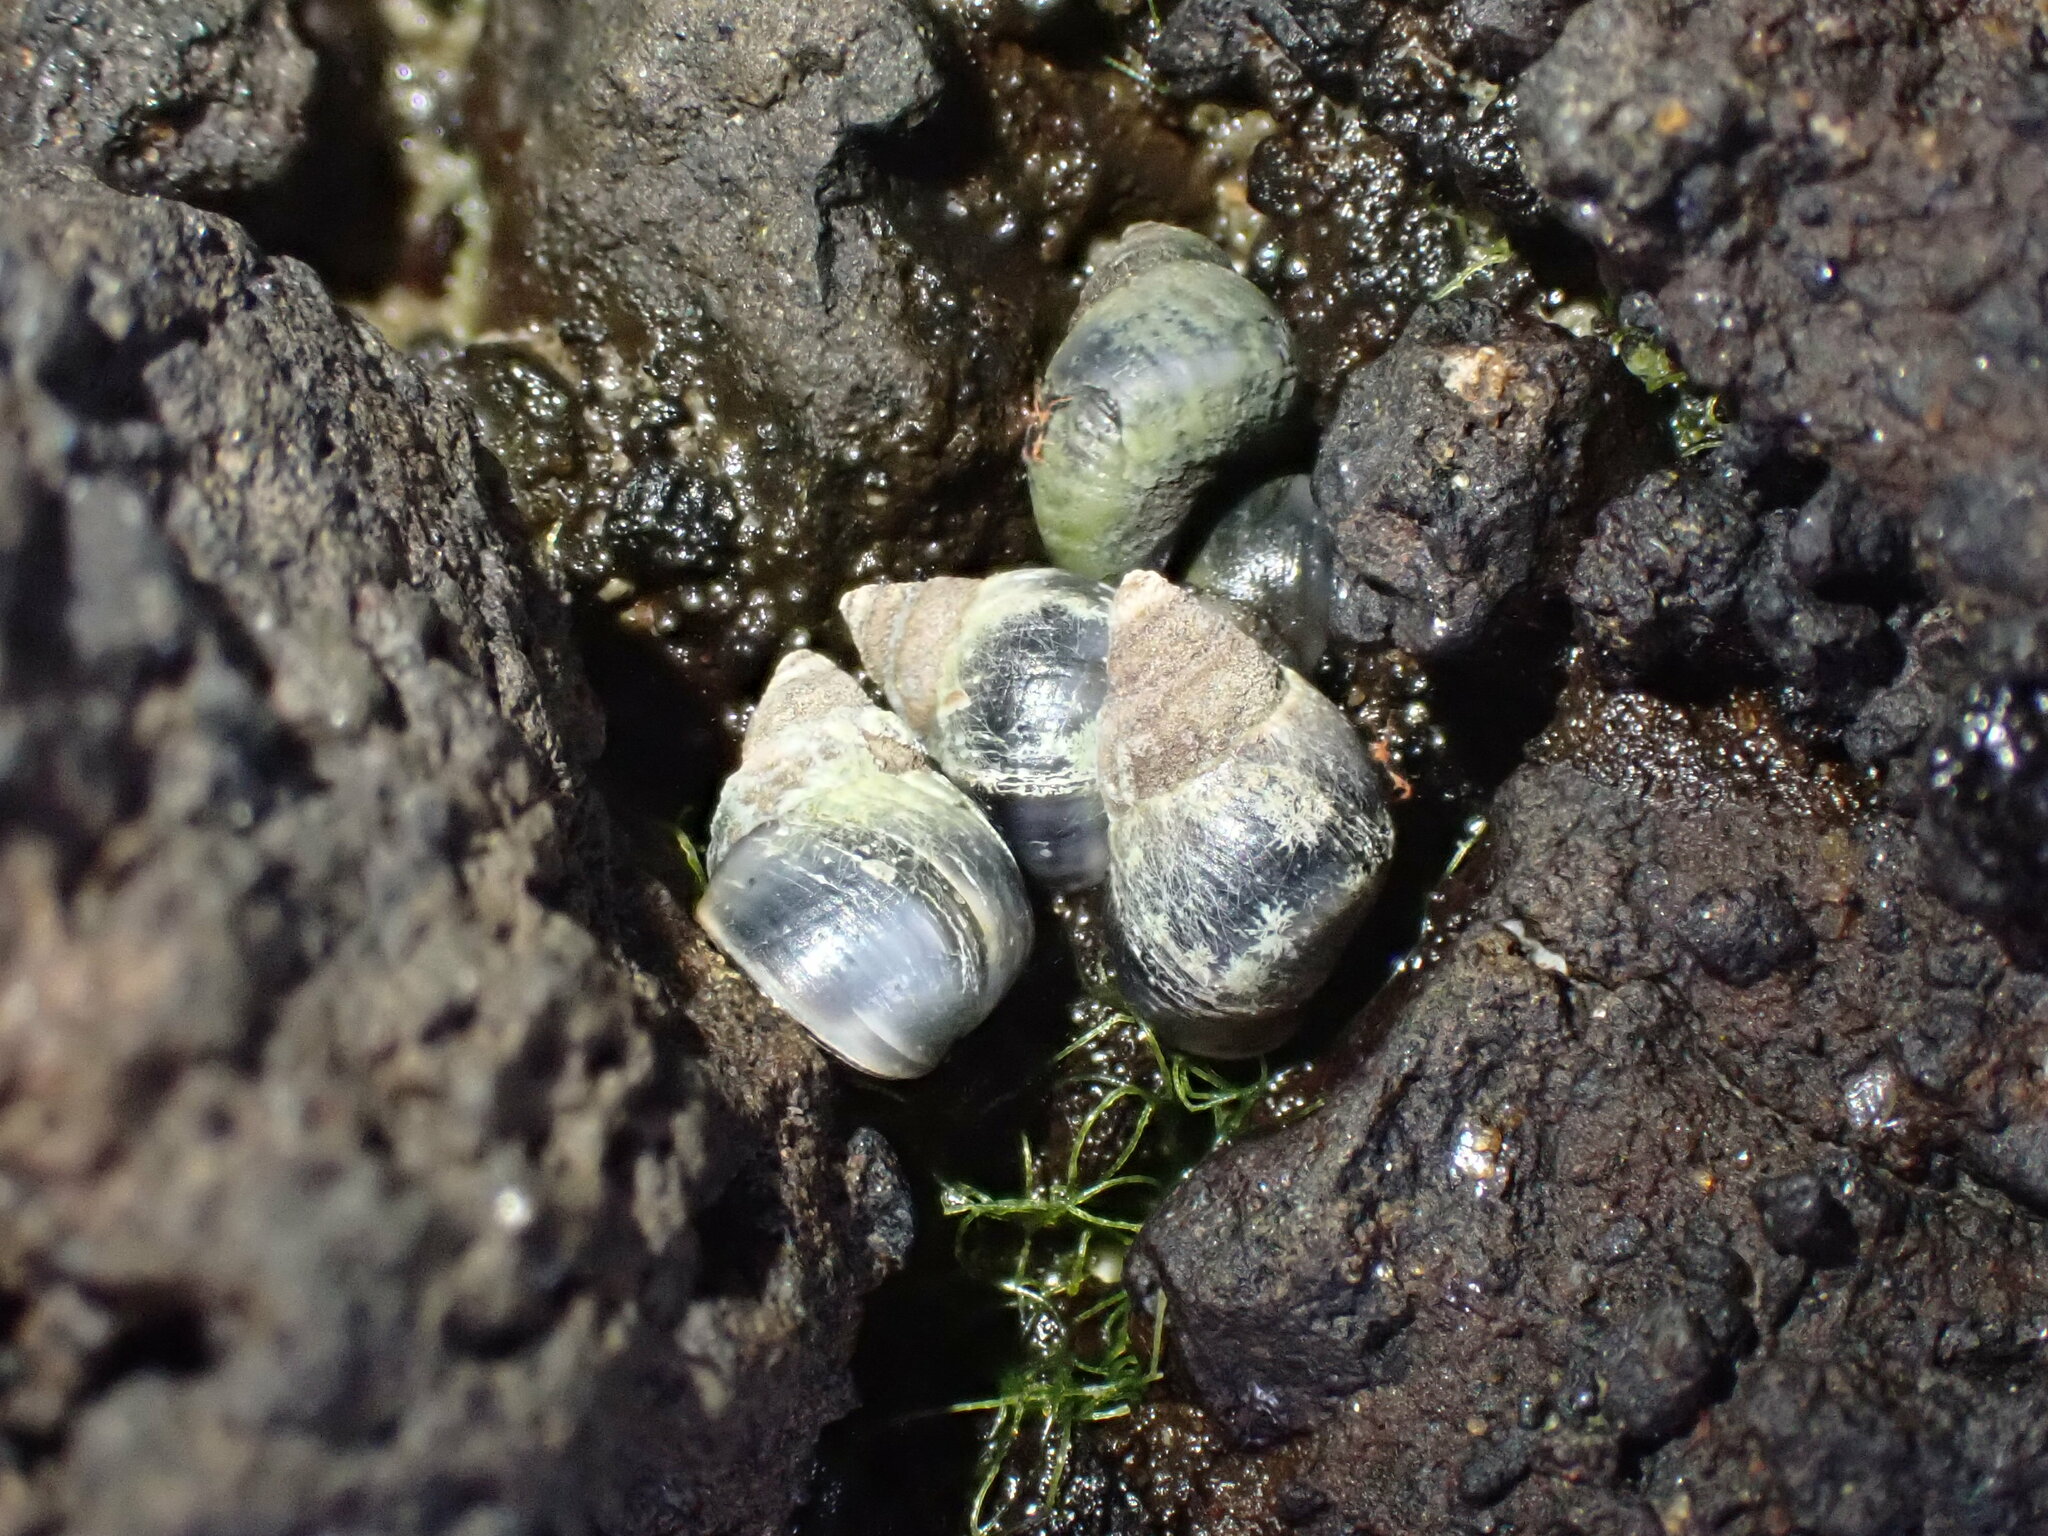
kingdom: Animalia
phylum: Mollusca
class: Gastropoda
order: Littorinimorpha
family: Littorinidae
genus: Austrolittorina
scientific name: Austrolittorina antipodum
